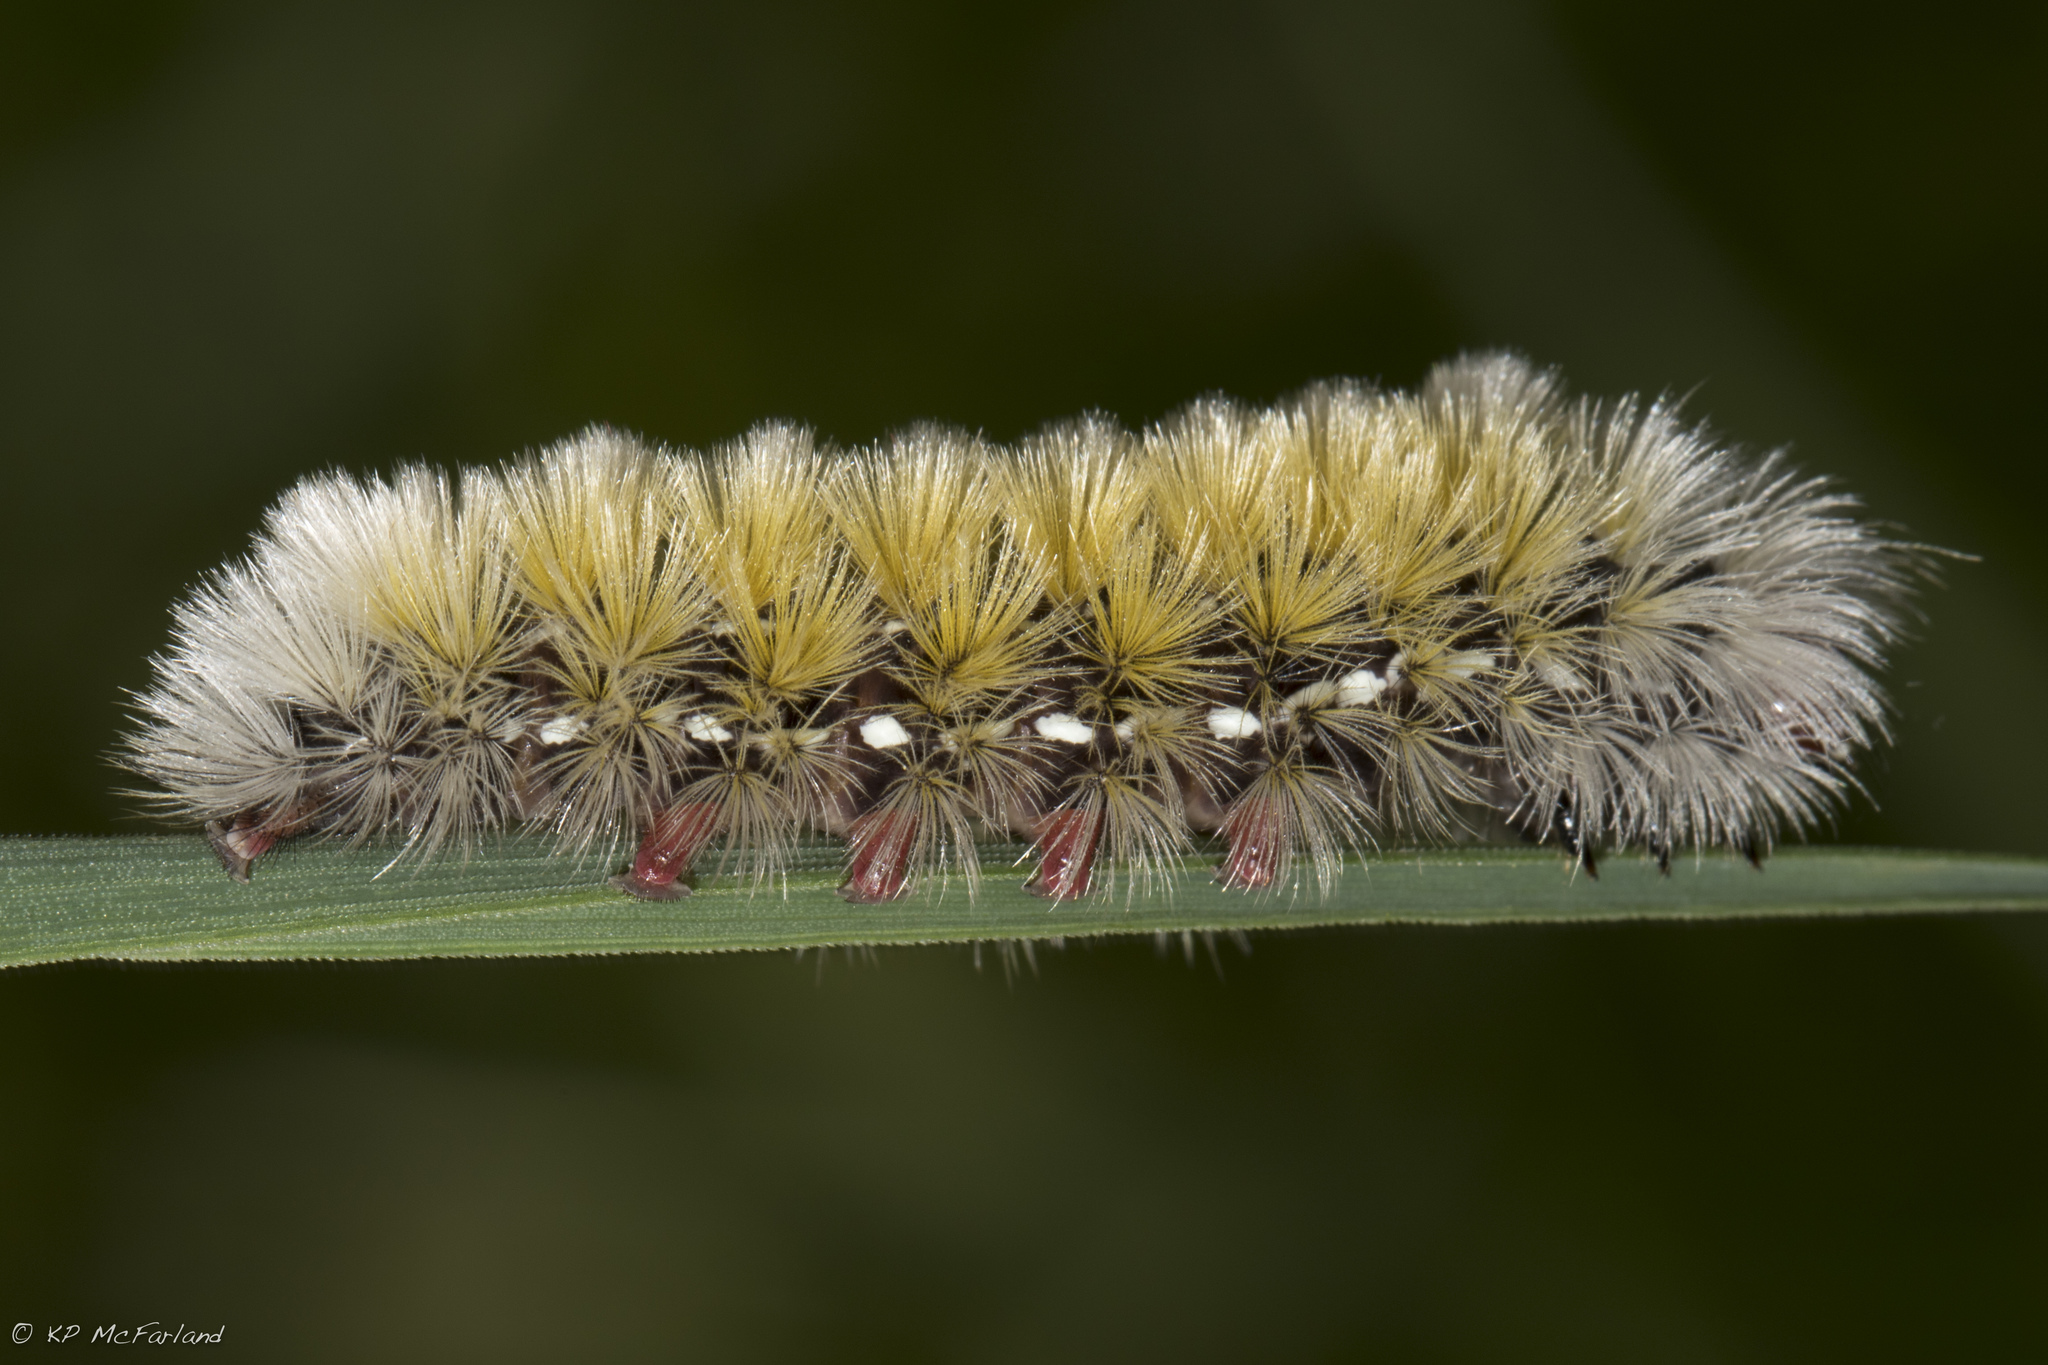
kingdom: Animalia
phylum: Arthropoda
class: Insecta
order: Lepidoptera
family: Erebidae
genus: Ctenucha
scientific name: Ctenucha virginica
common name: Virginia ctenucha moth
